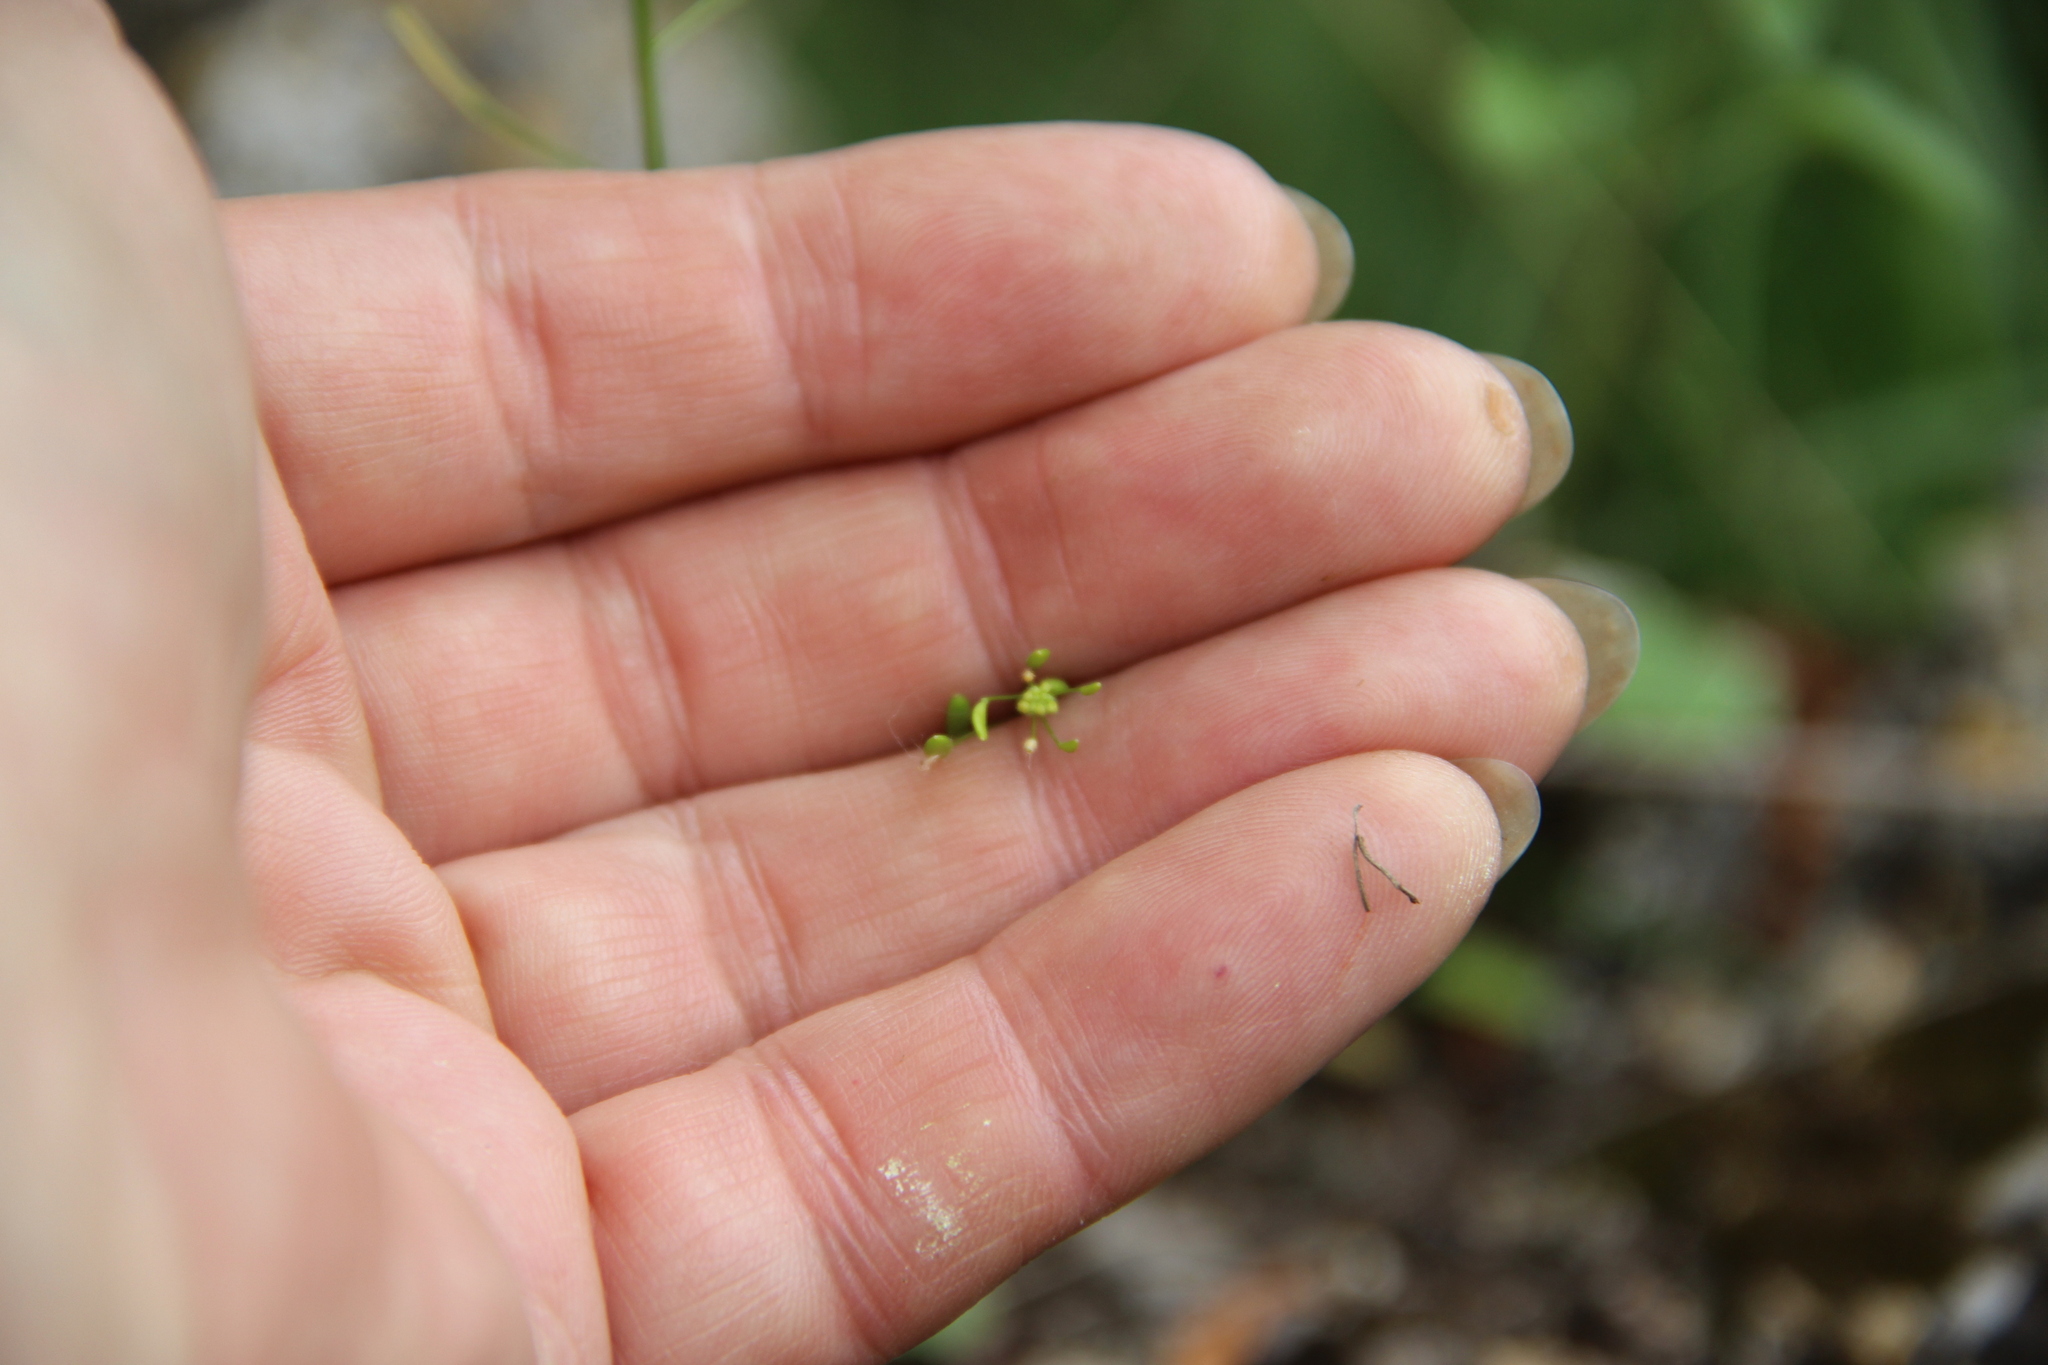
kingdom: Plantae
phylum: Tracheophyta
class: Magnoliopsida
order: Brassicales
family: Brassicaceae
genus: Draba
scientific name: Draba nemorosa
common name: Wood whitlow-grass
